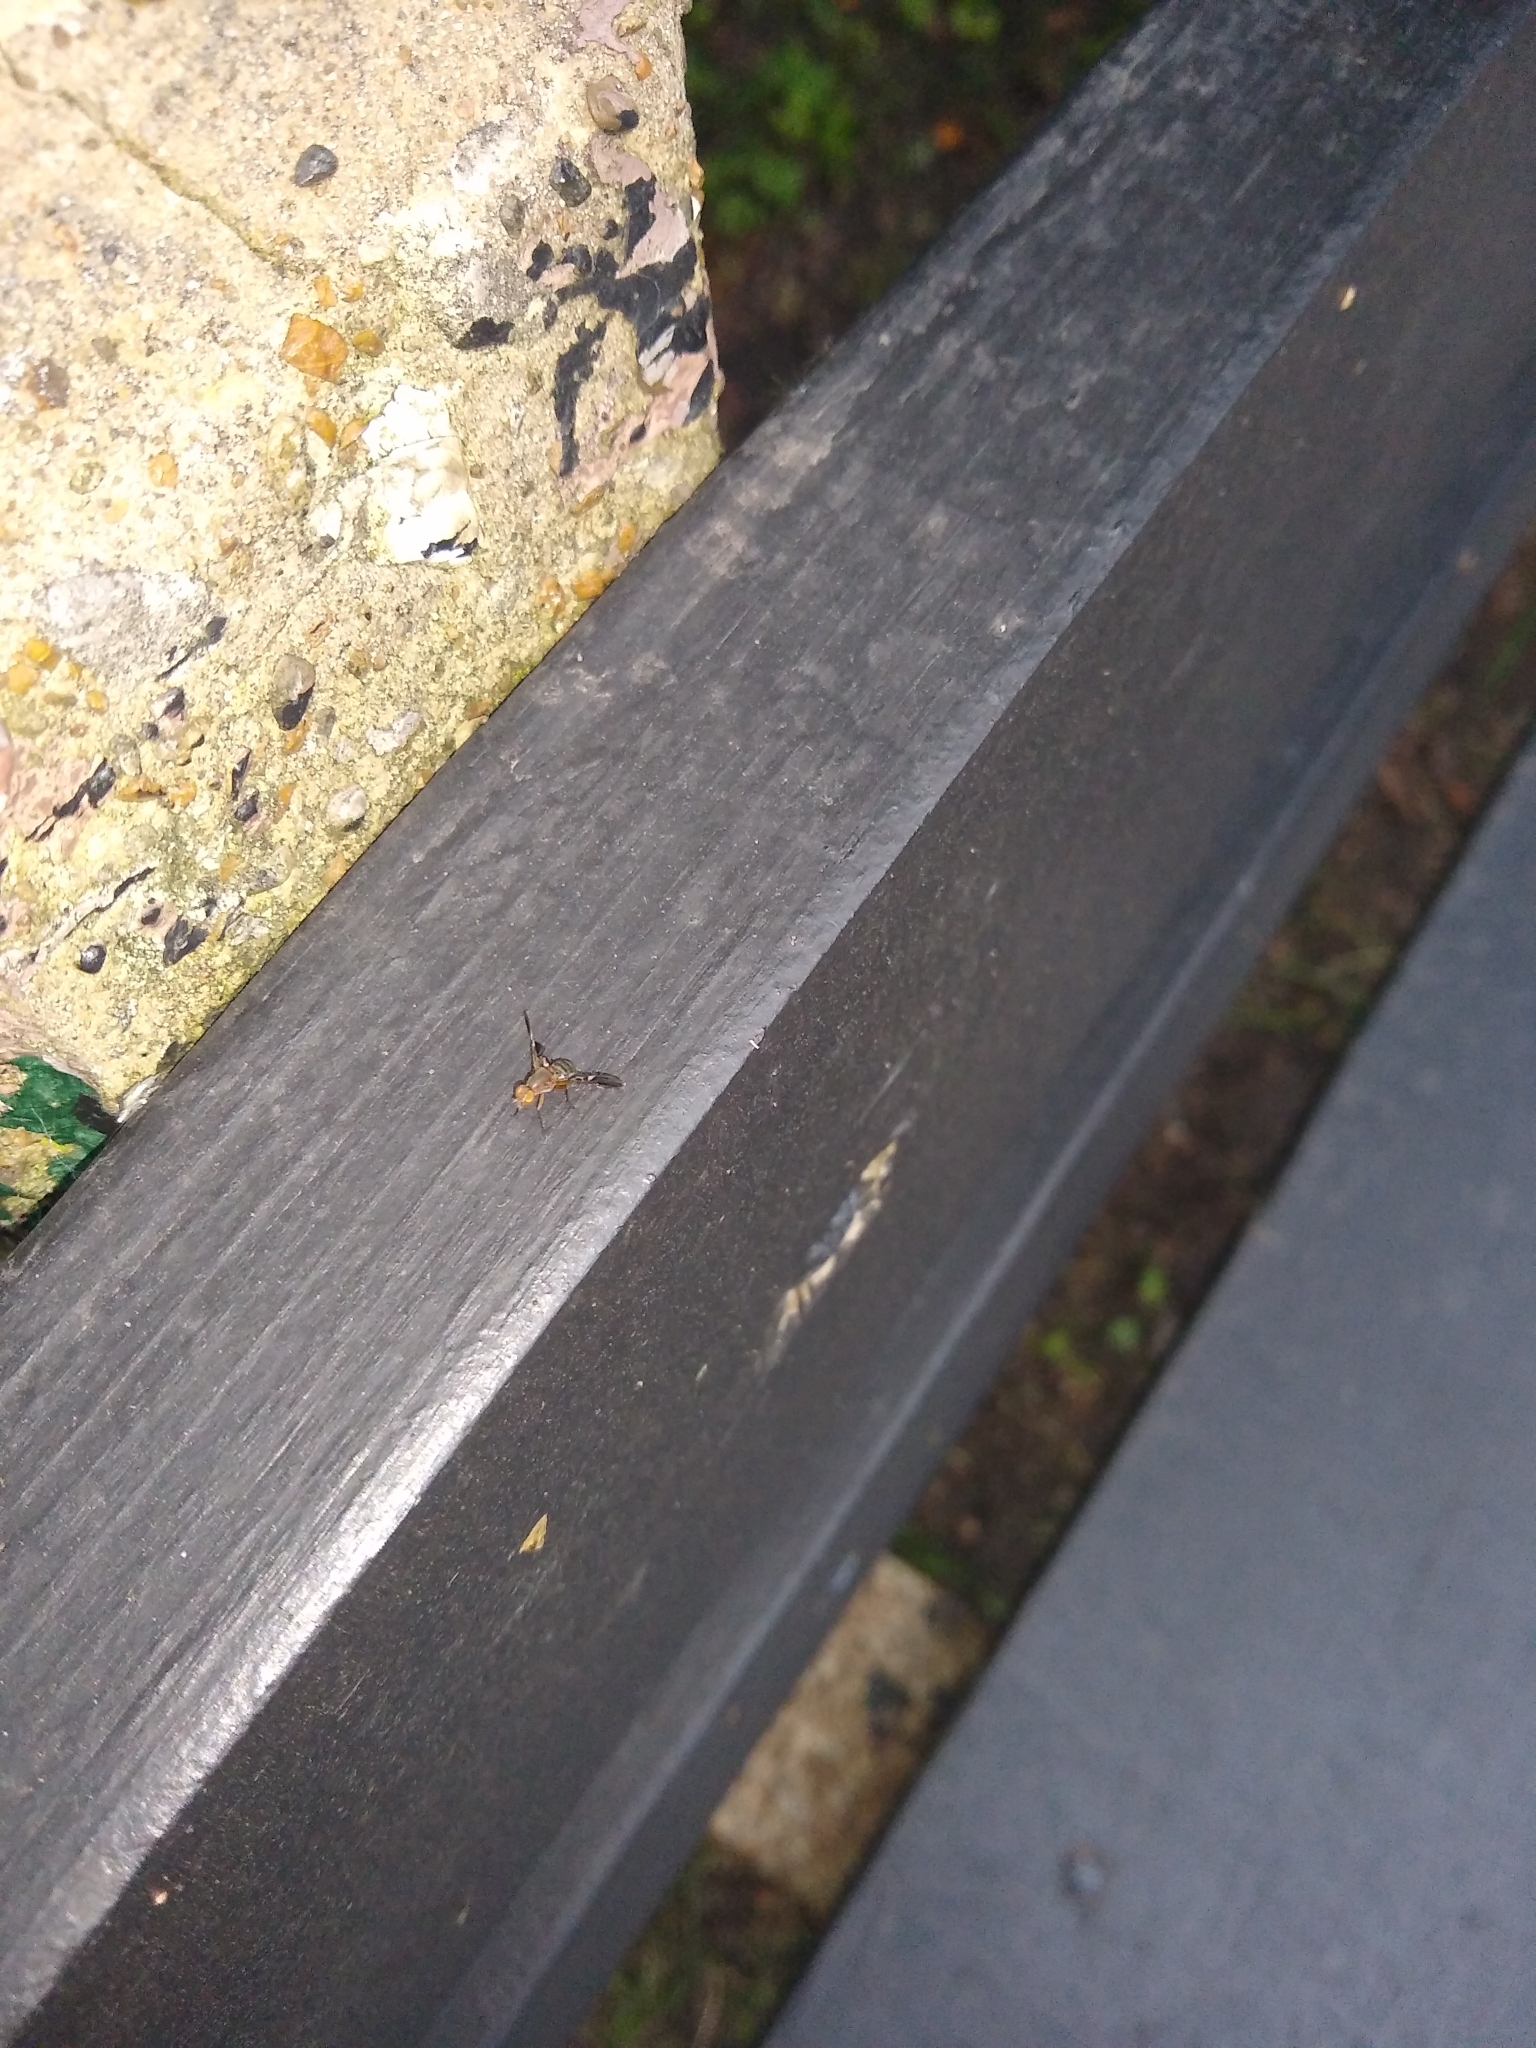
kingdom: Animalia
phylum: Arthropoda
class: Insecta
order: Diptera
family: Ulidiidae
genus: Delphinia
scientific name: Delphinia picta
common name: Common picture-winged fly
